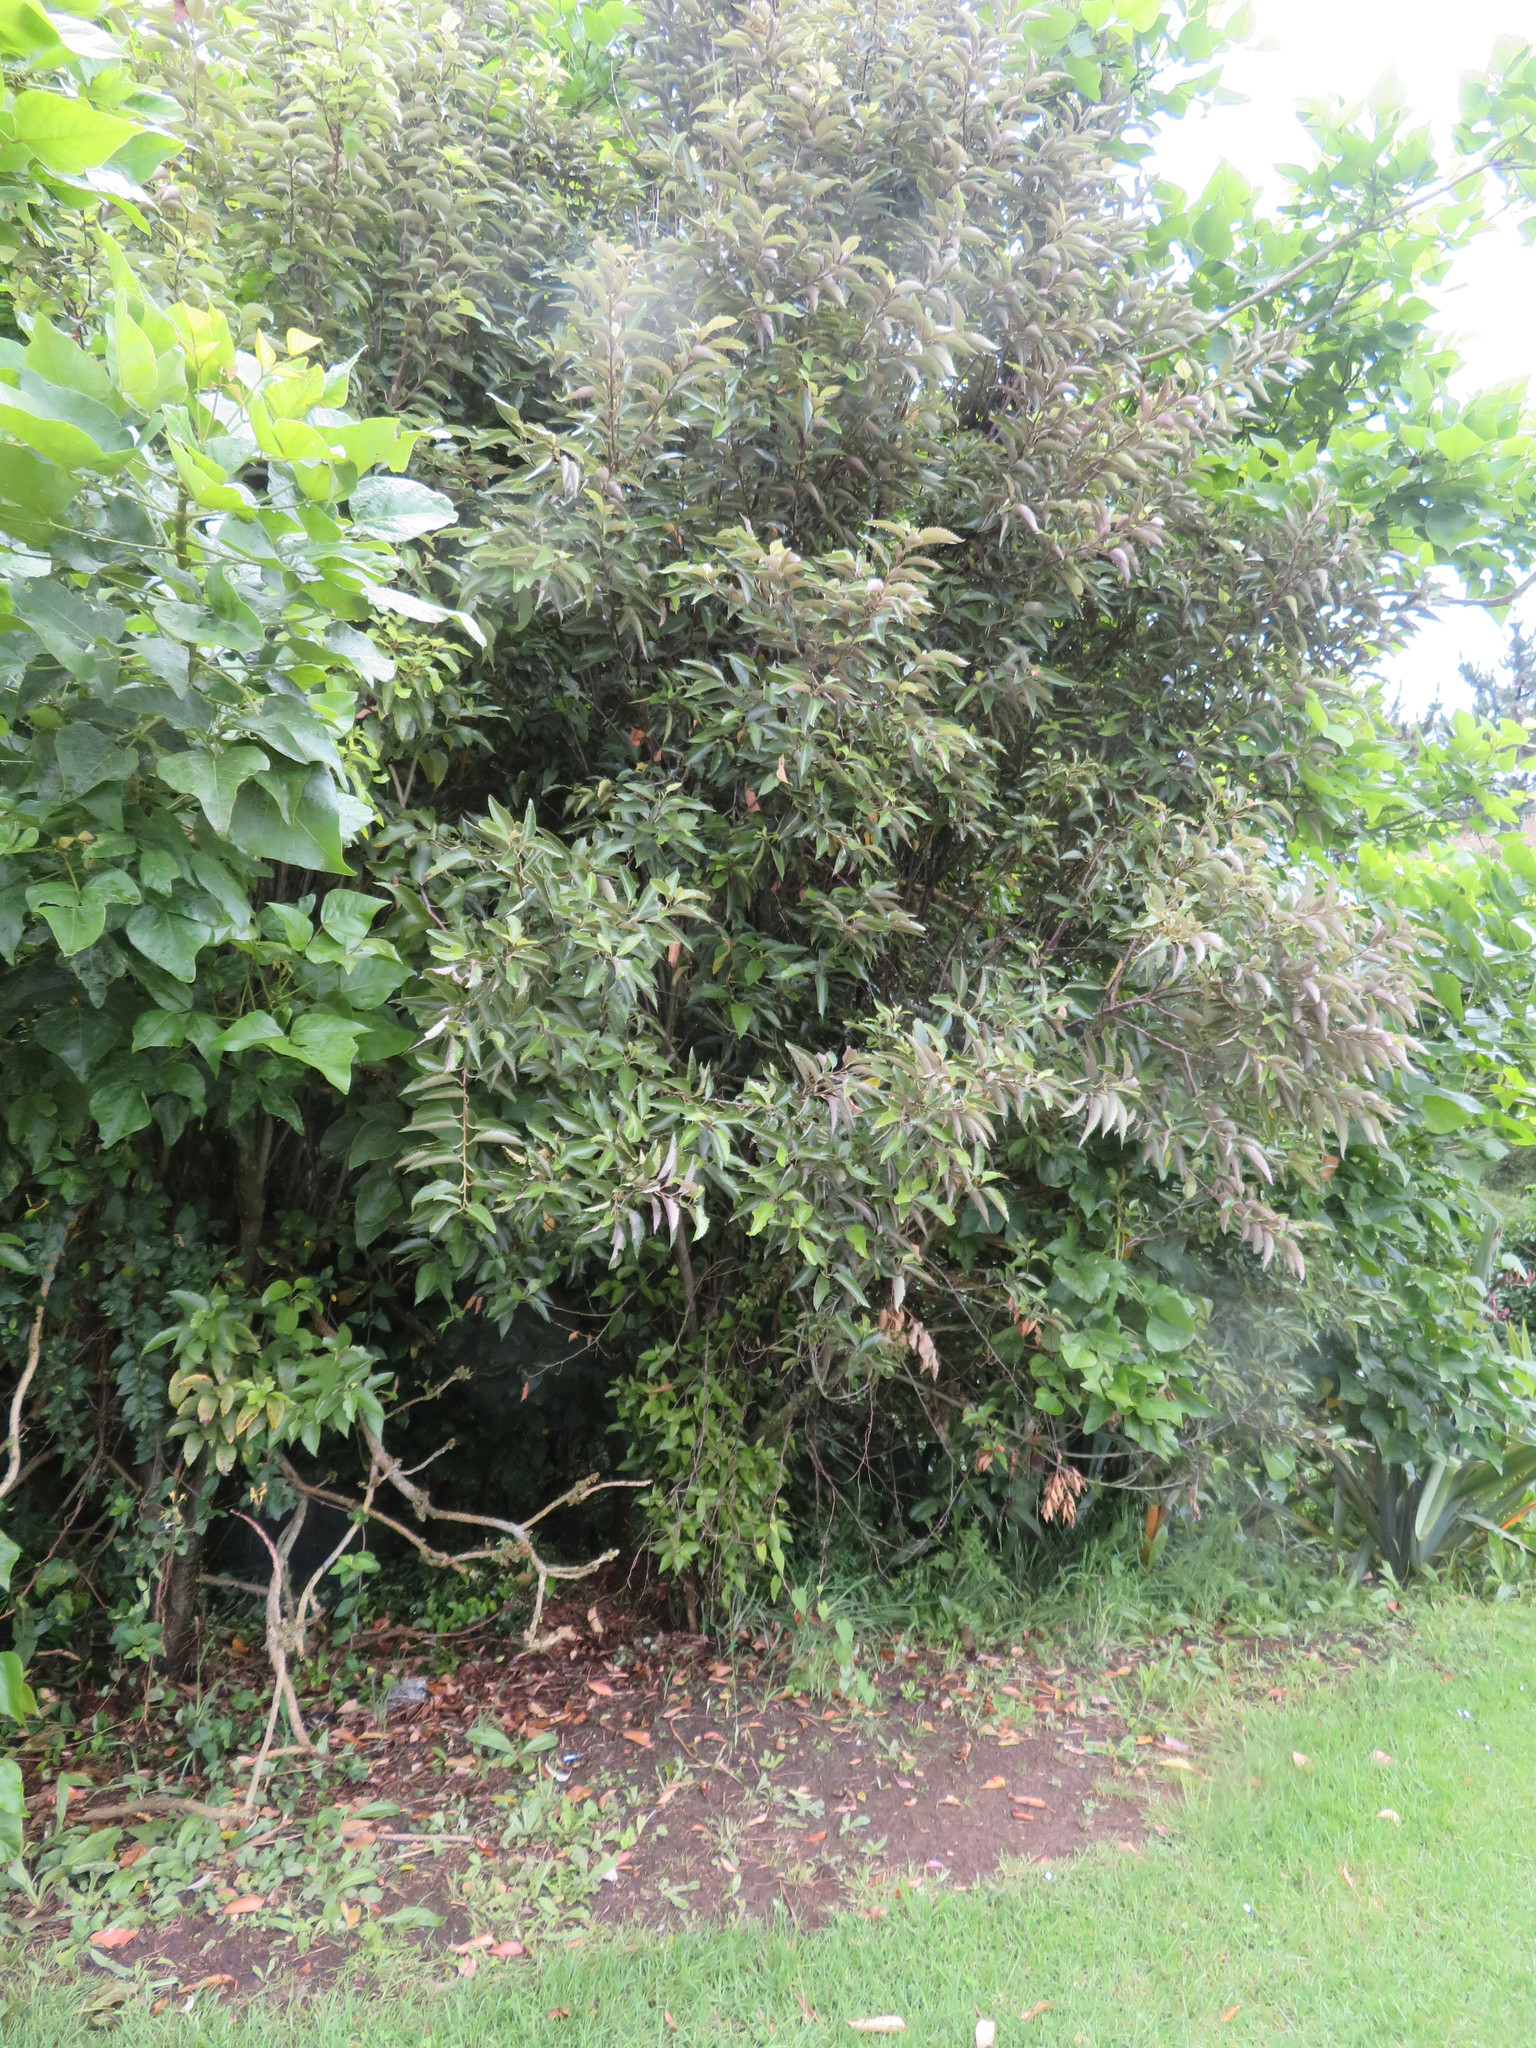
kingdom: Plantae
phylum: Tracheophyta
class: Magnoliopsida
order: Malvales
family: Malvaceae
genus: Hoheria
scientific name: Hoheria populnea
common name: Lacebark
